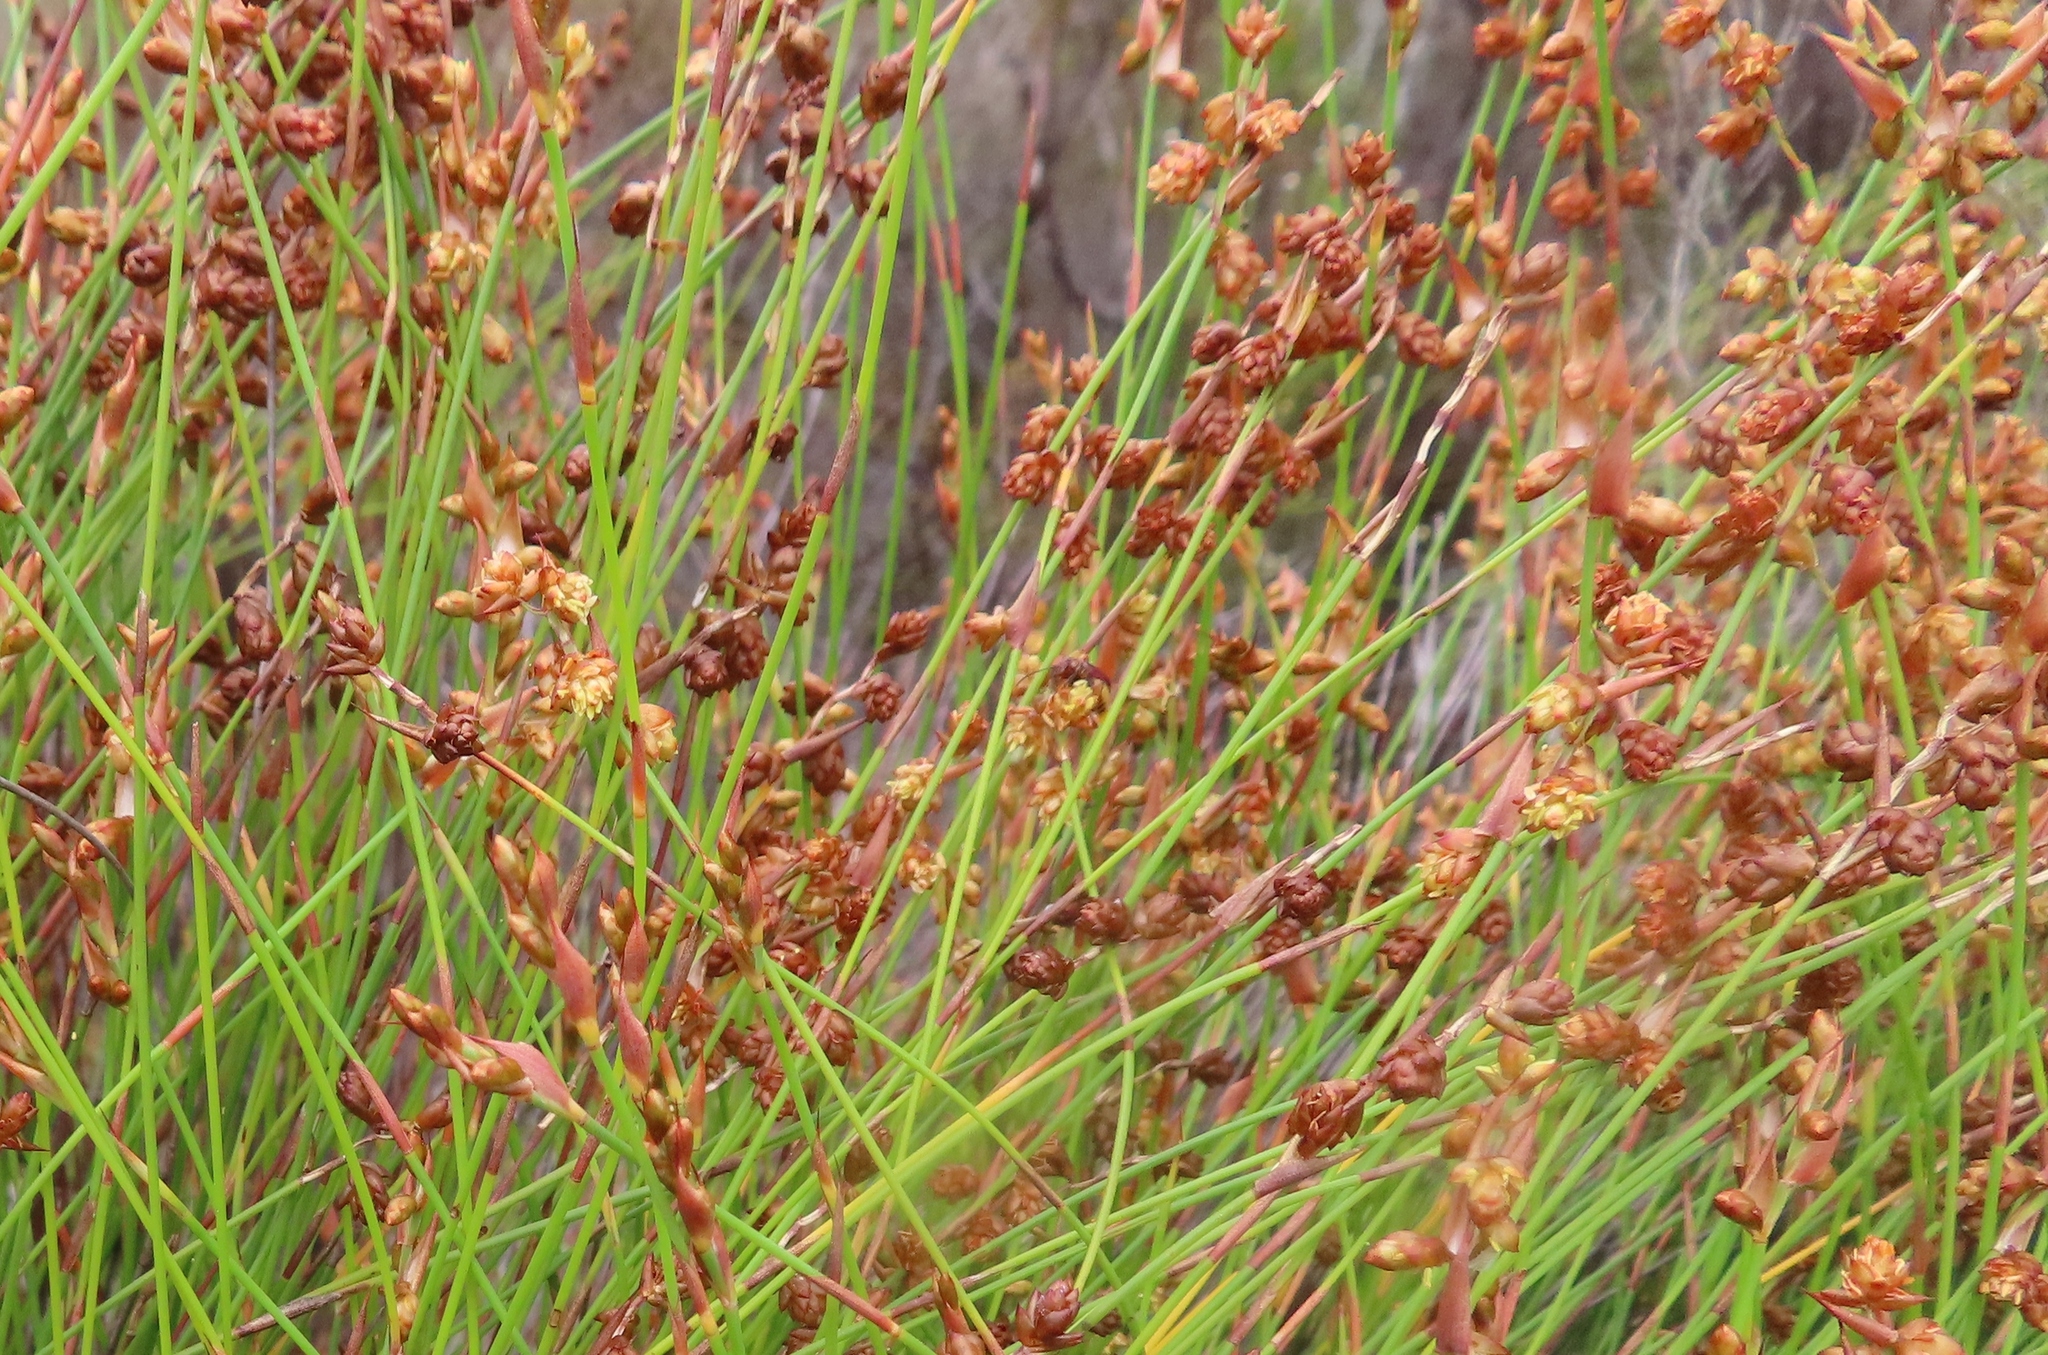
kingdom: Plantae
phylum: Tracheophyta
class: Liliopsida
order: Poales
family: Restionaceae
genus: Mastersiella
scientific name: Mastersiella digitata
